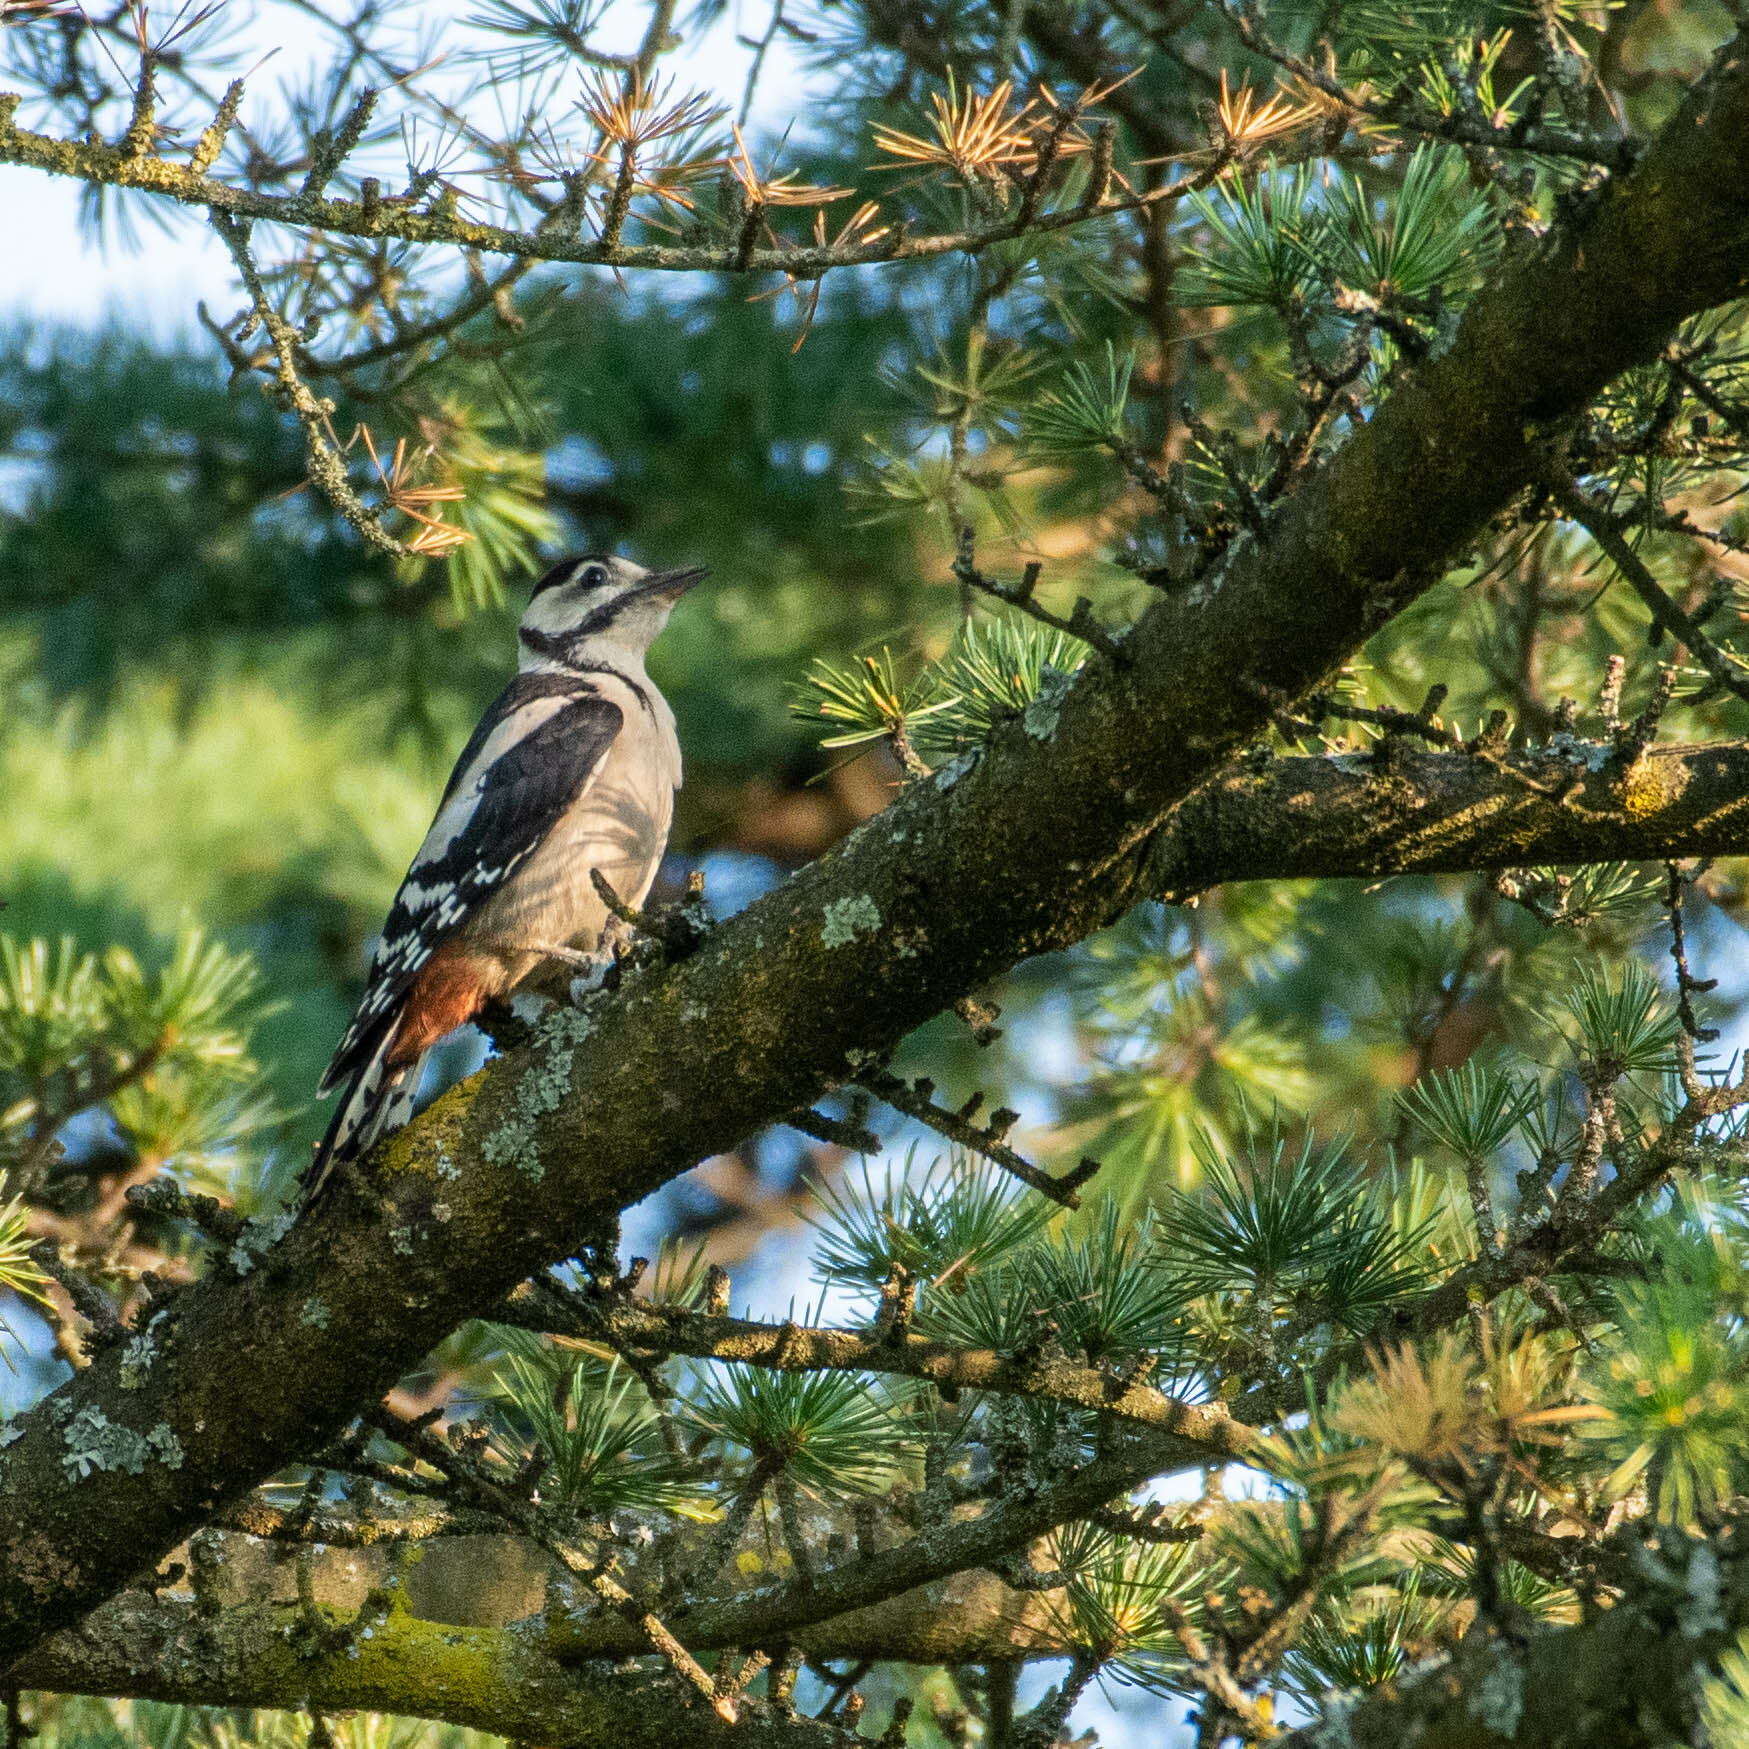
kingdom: Animalia
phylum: Chordata
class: Aves
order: Piciformes
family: Picidae
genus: Dendrocopos
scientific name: Dendrocopos major
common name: Great spotted woodpecker
